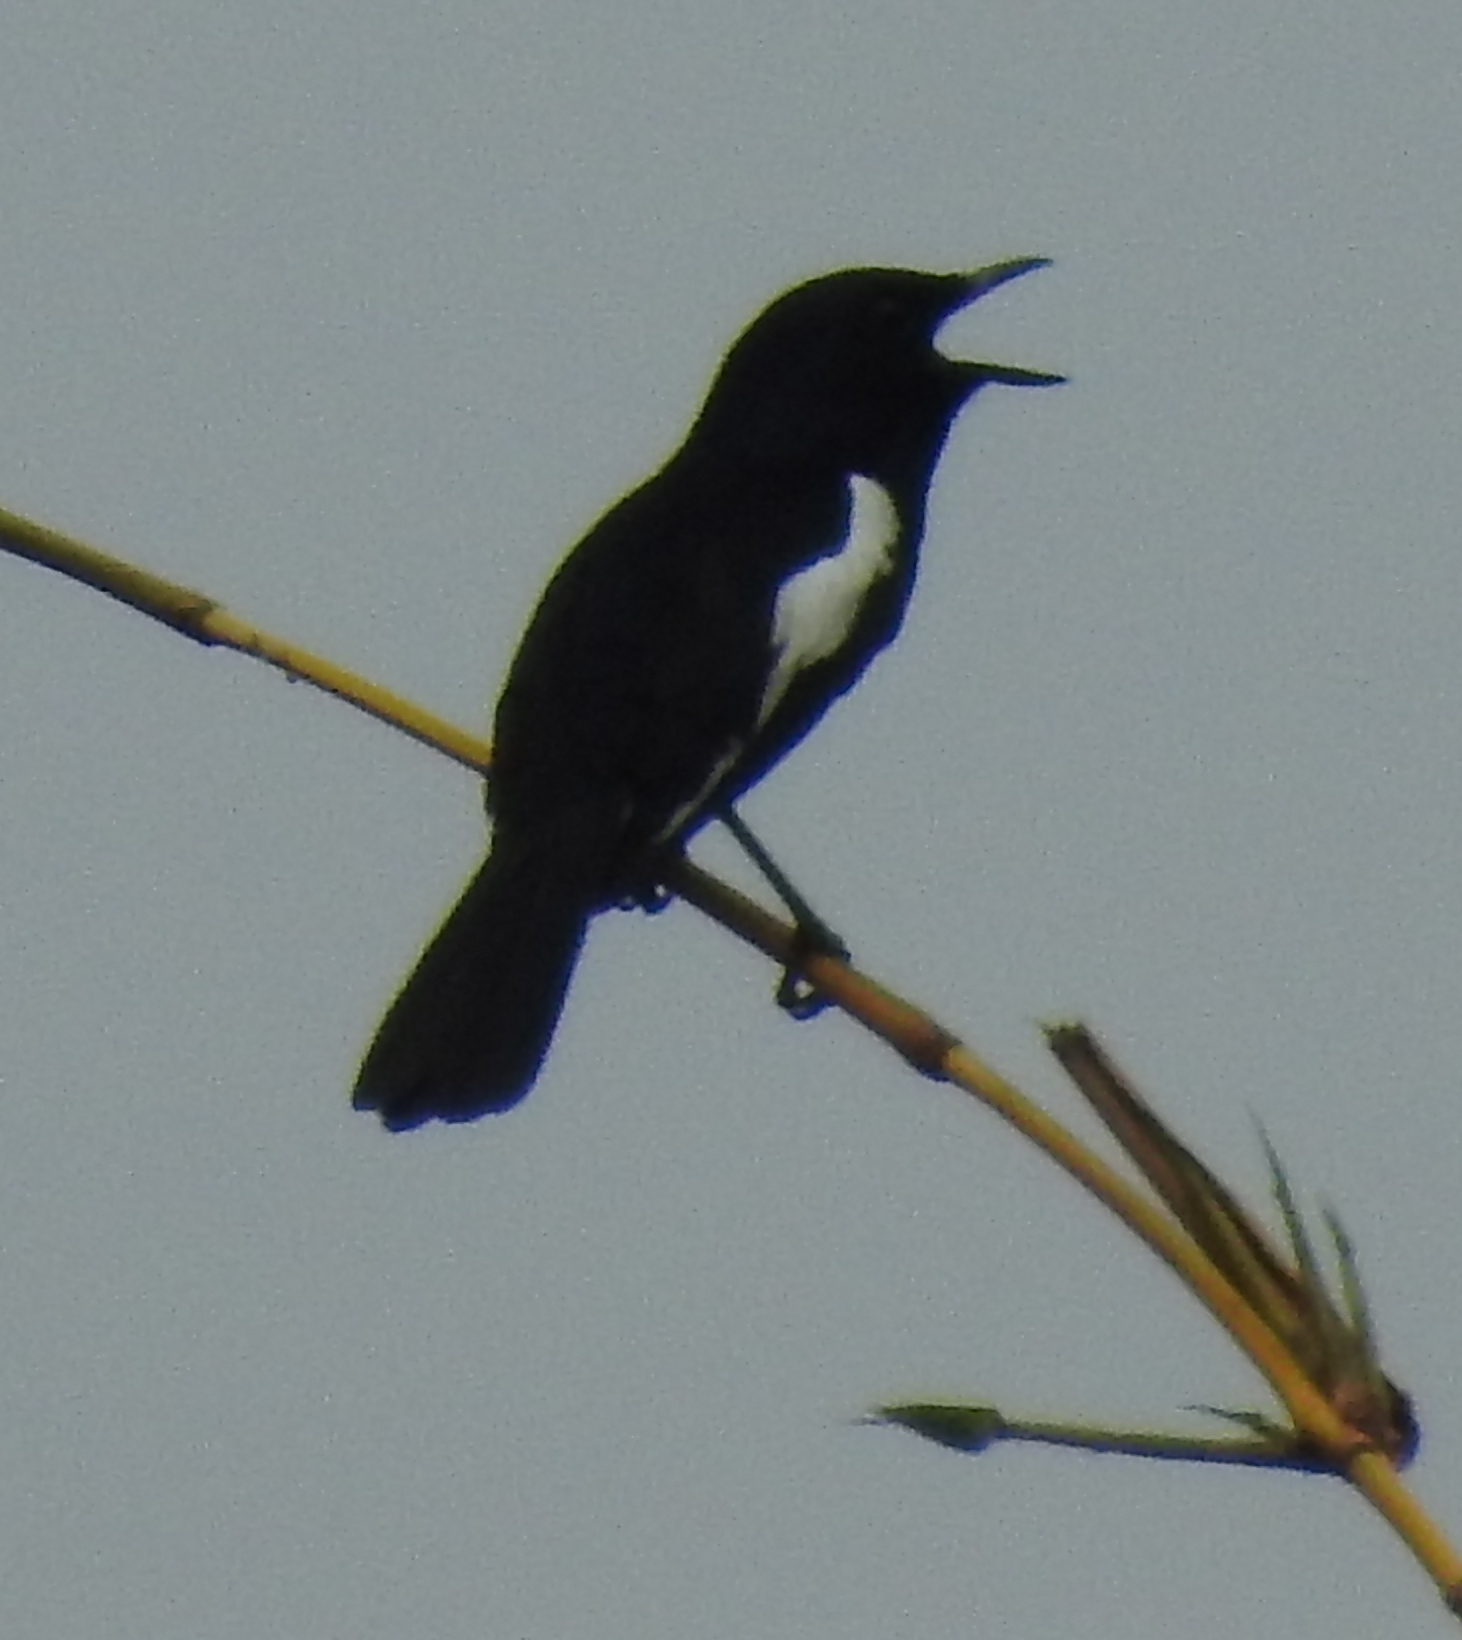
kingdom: Animalia
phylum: Chordata
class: Aves
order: Passeriformes
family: Muscicapidae
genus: Copsychus
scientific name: Copsychus saularis
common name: Oriental magpie-robin
